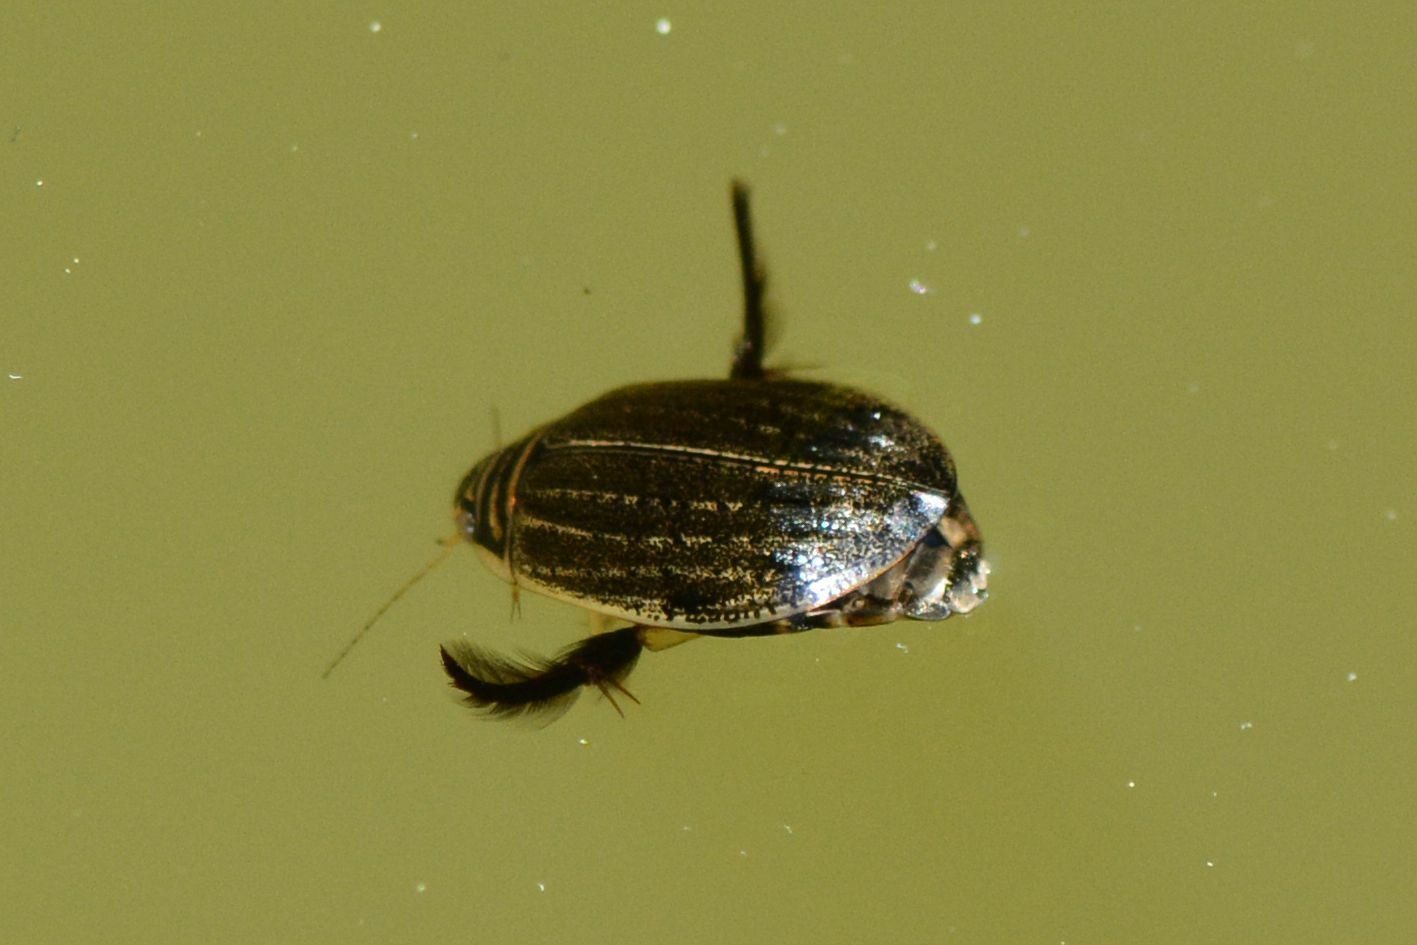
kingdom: Animalia
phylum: Arthropoda
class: Insecta
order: Coleoptera
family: Dytiscidae
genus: Acilius
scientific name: Acilius sulcatus
